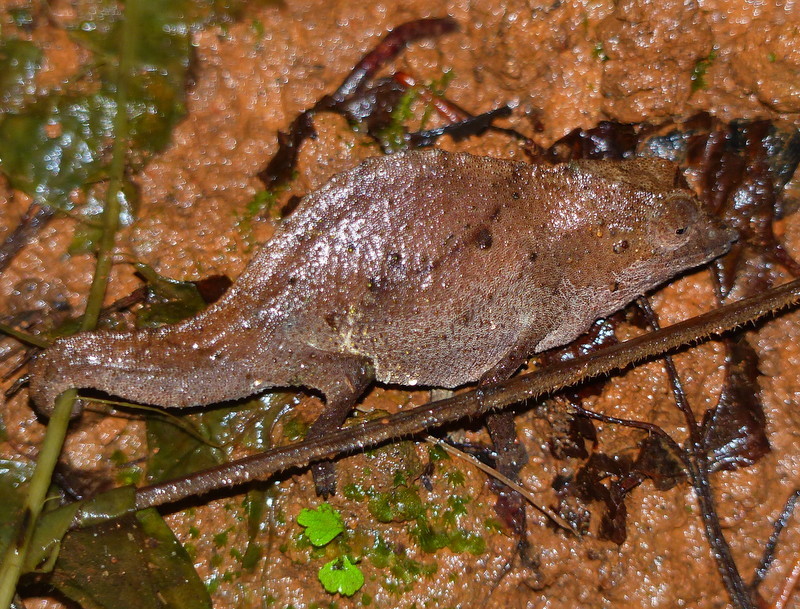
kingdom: Animalia
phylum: Chordata
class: Squamata
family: Chamaeleonidae
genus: Rhampholeon
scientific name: Rhampholeon temporalis
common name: Usambara stumptail chameleon
